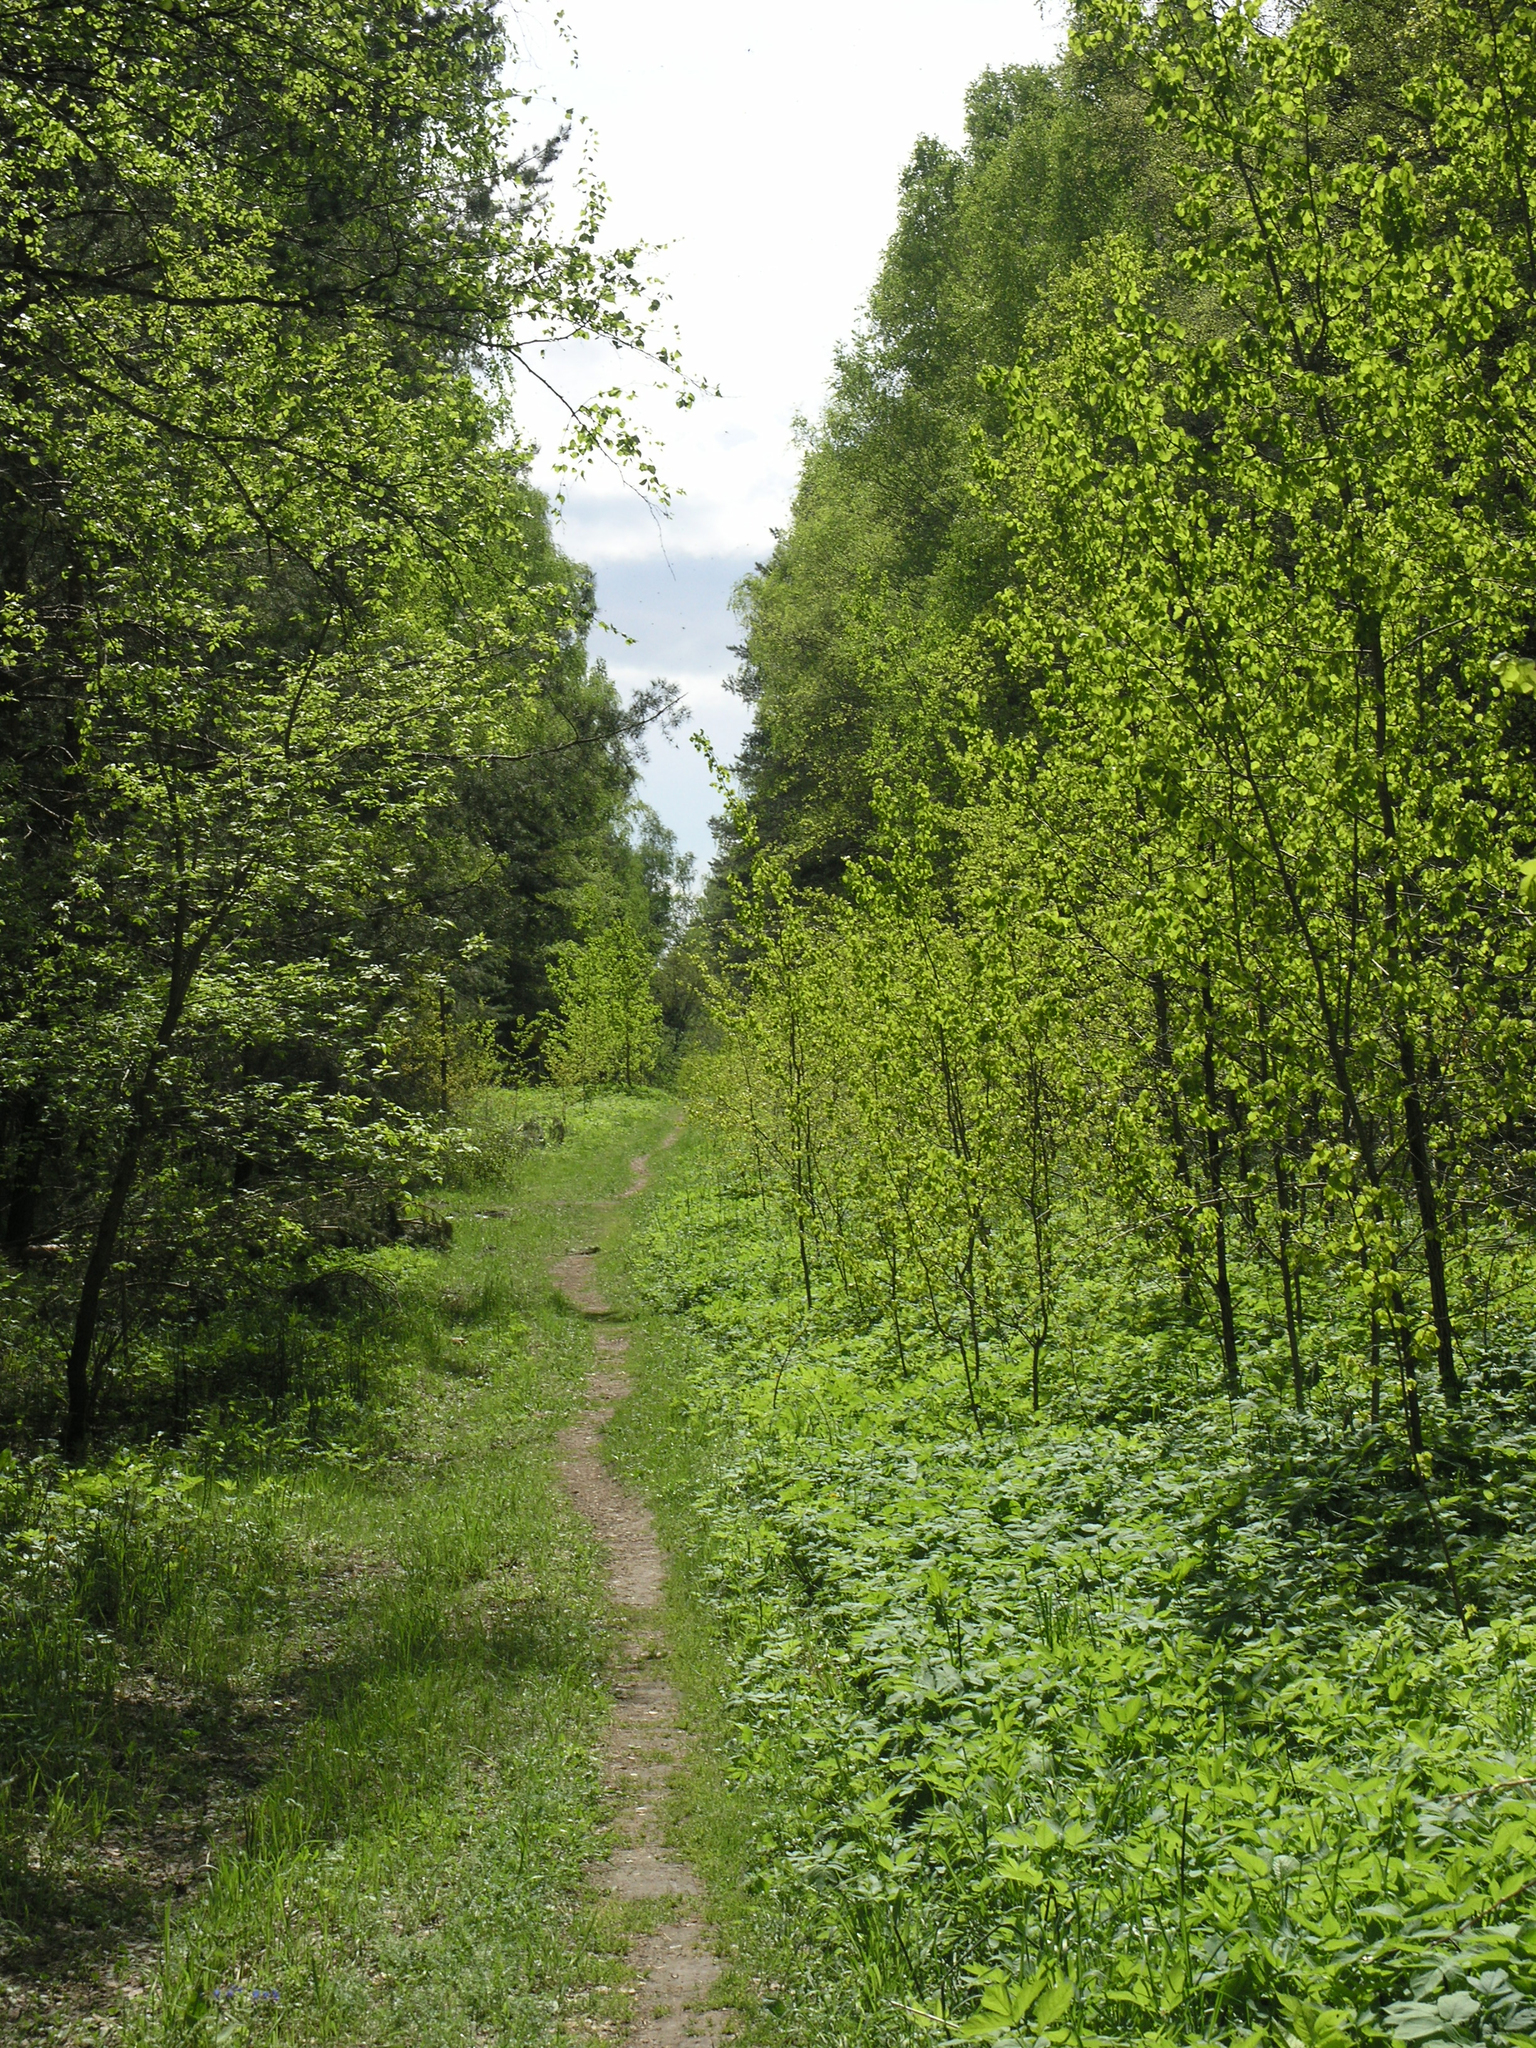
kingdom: Plantae
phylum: Tracheophyta
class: Magnoliopsida
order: Malpighiales
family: Salicaceae
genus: Populus
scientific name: Populus tremula
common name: European aspen
